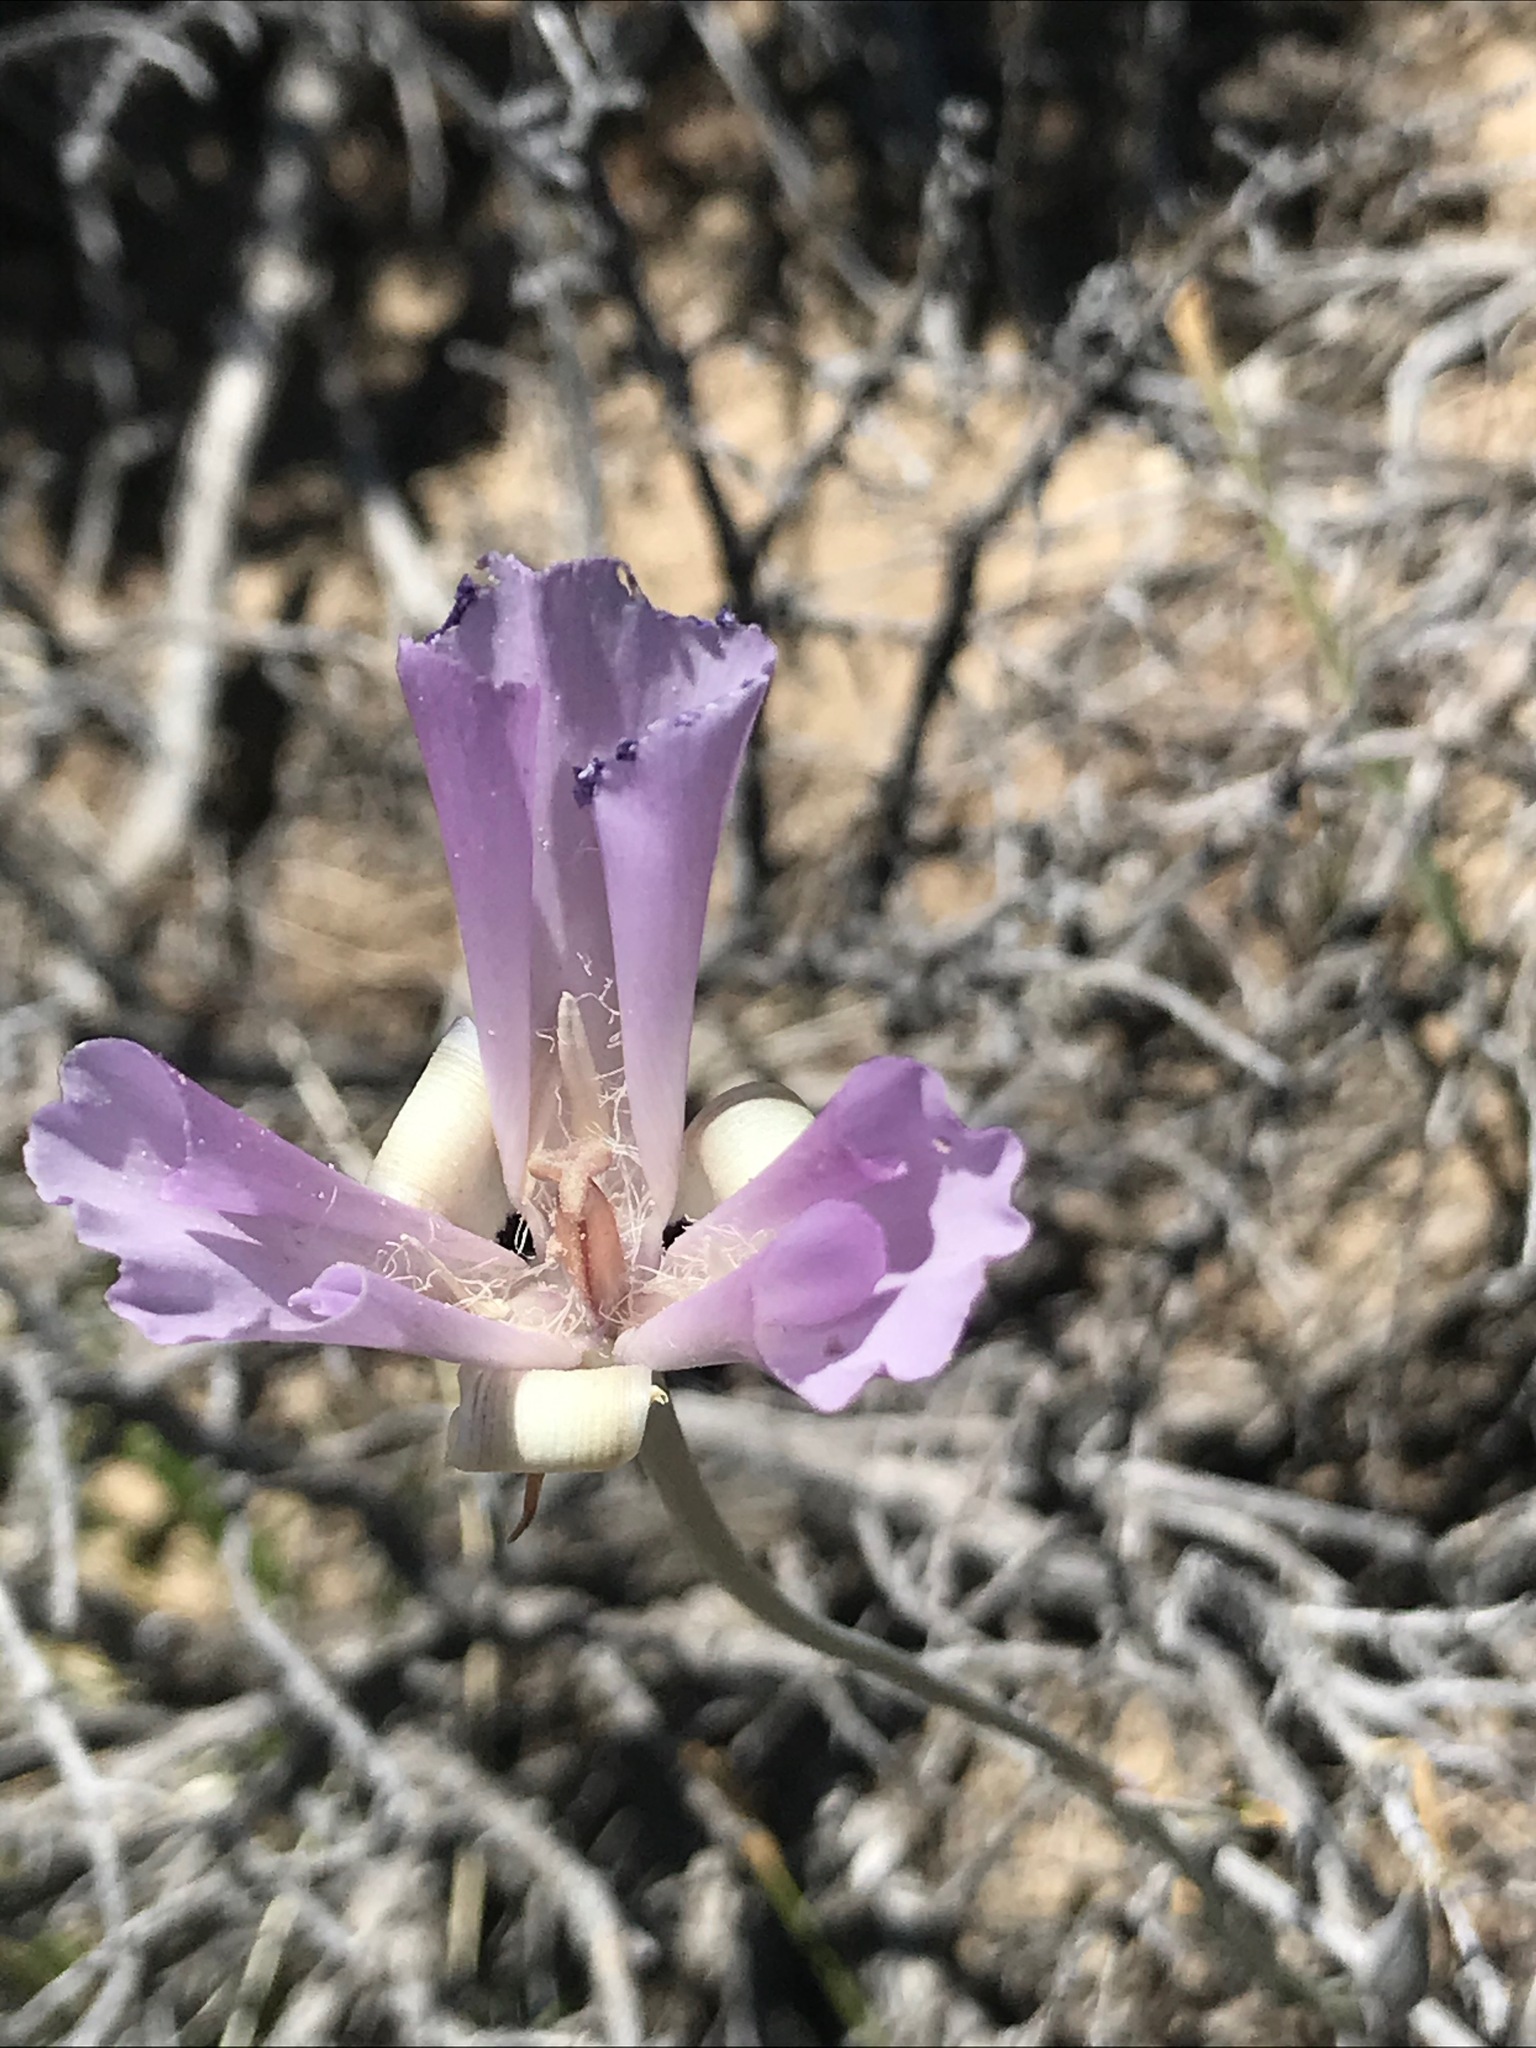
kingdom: Plantae
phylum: Tracheophyta
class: Liliopsida
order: Liliales
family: Liliaceae
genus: Calochortus
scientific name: Calochortus splendens
